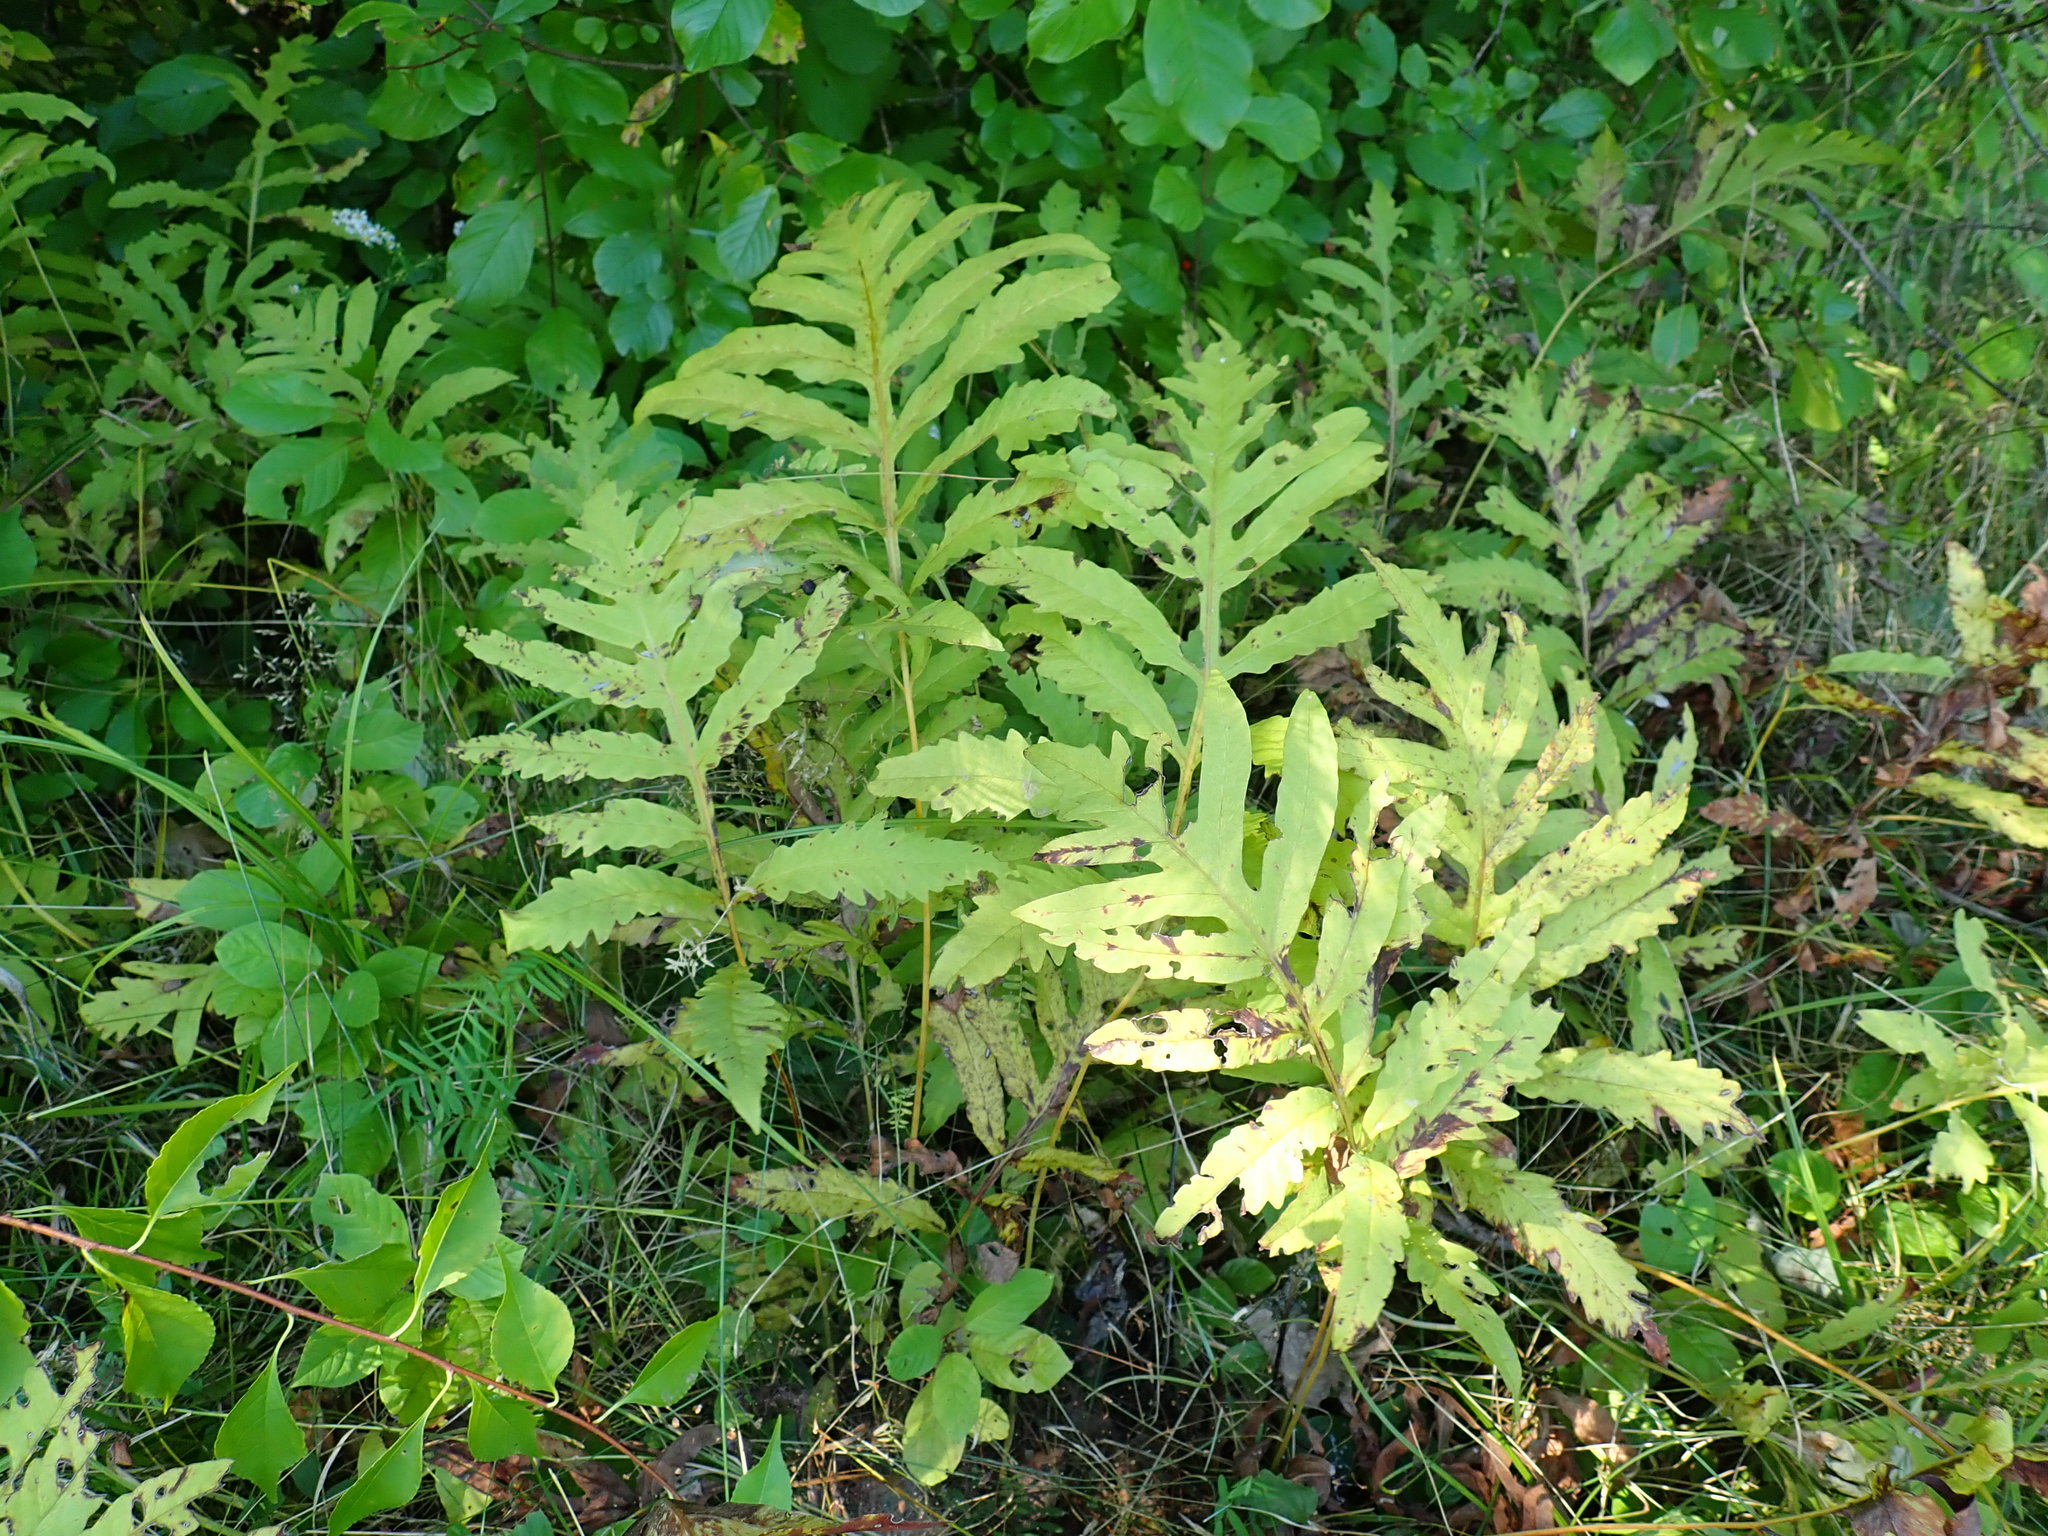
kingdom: Plantae
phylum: Tracheophyta
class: Polypodiopsida
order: Polypodiales
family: Onocleaceae
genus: Onoclea
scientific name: Onoclea sensibilis
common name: Sensitive fern
